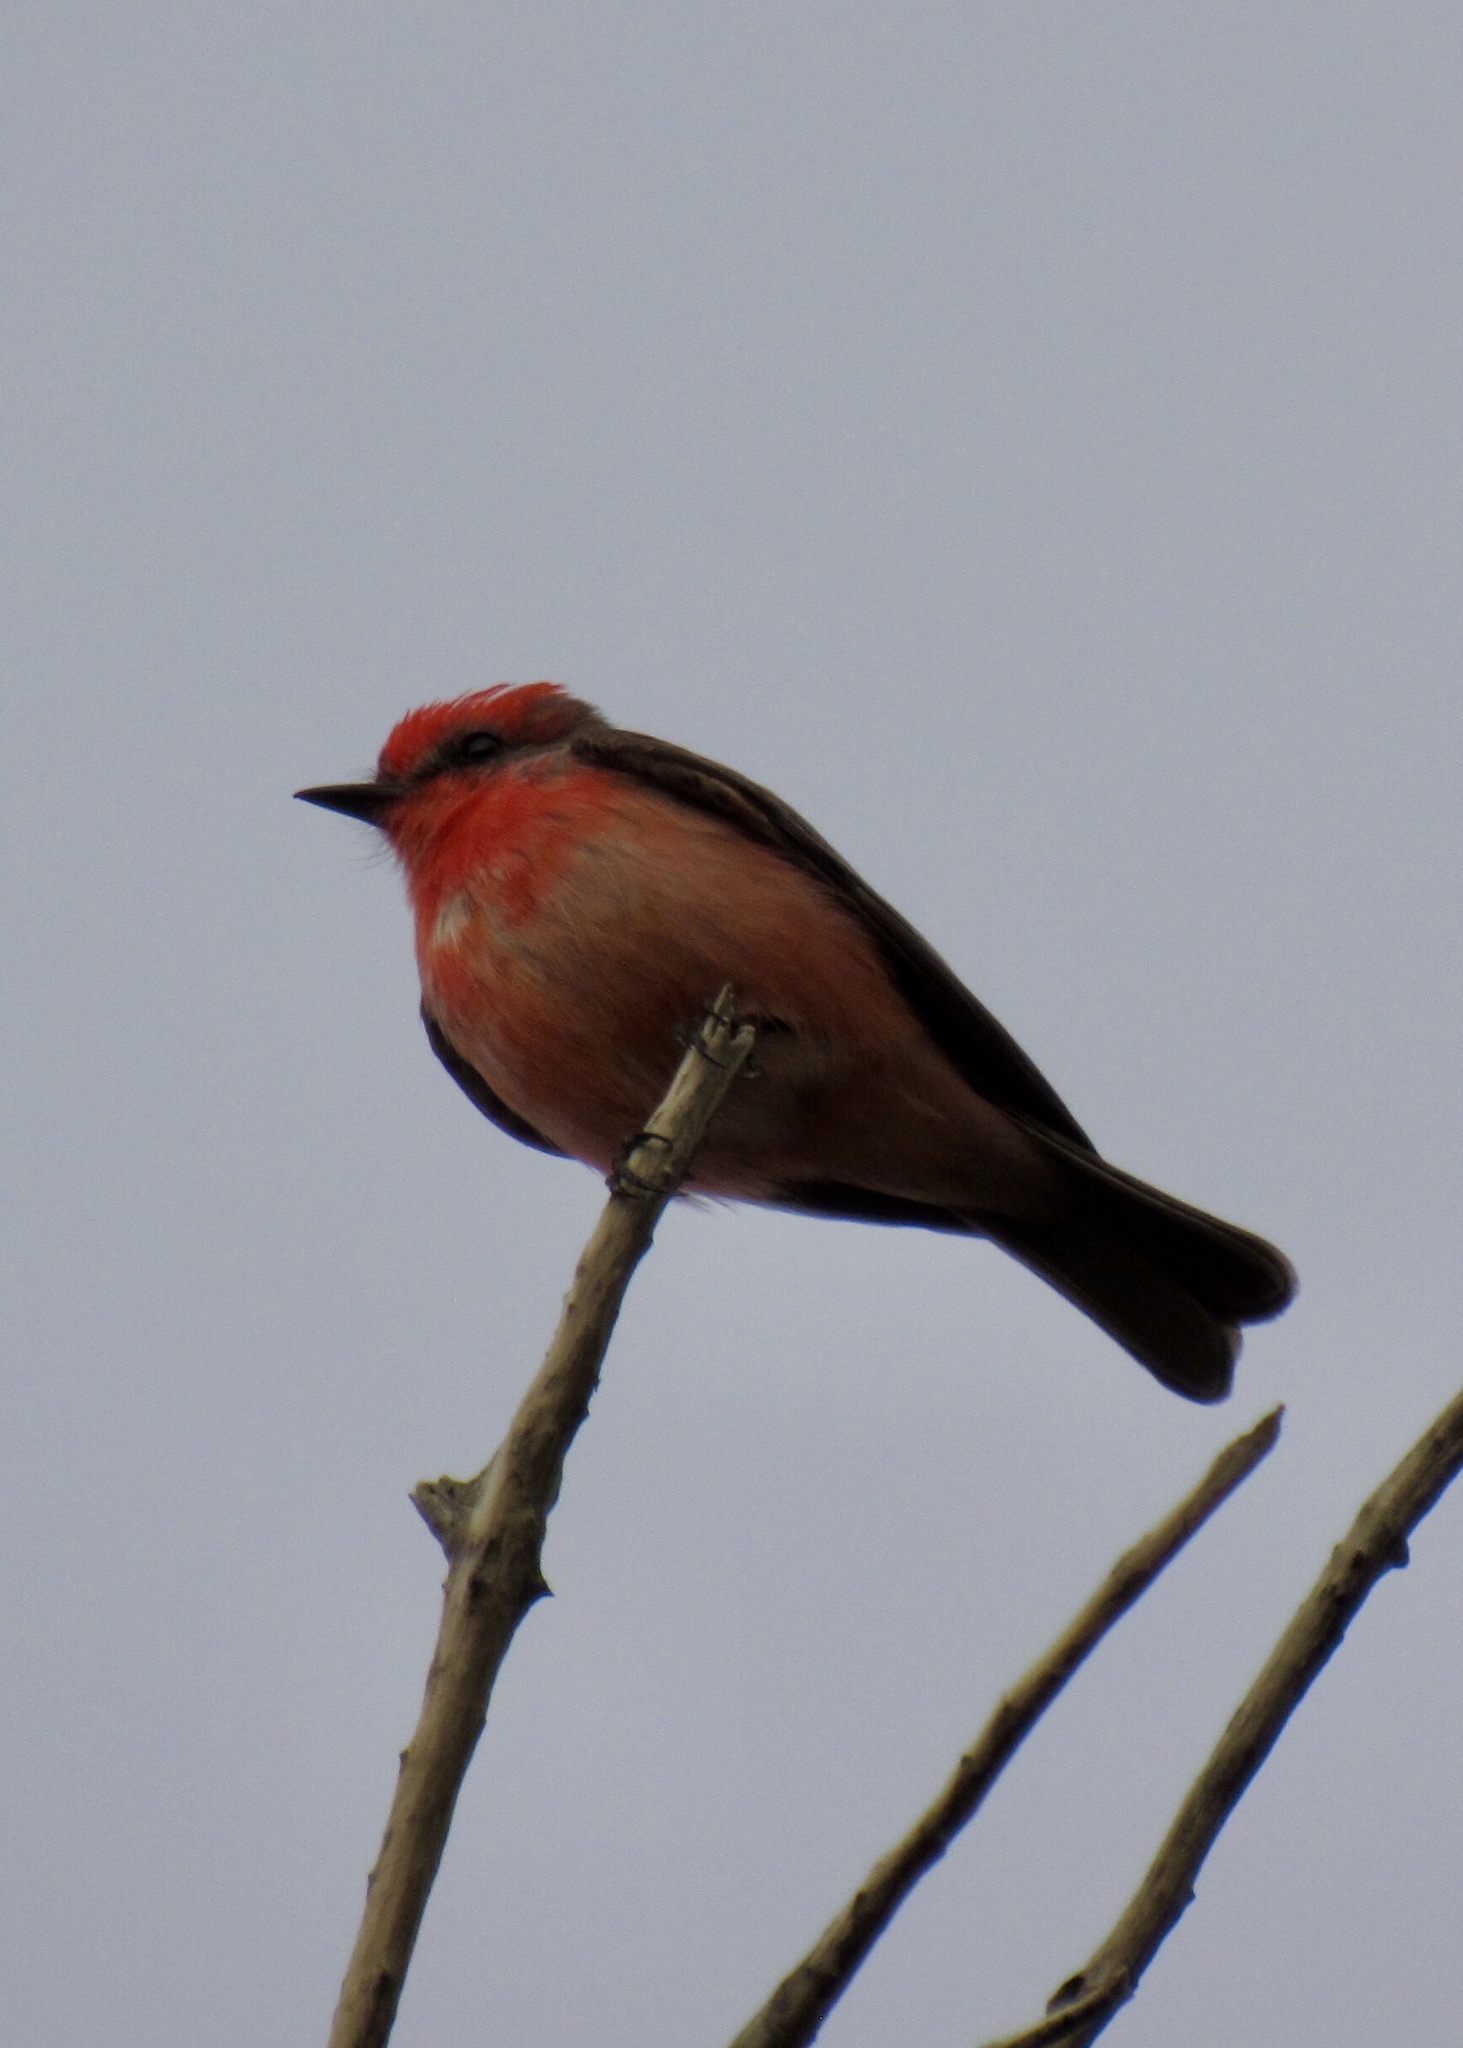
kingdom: Animalia
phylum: Chordata
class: Aves
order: Passeriformes
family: Tyrannidae
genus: Pyrocephalus
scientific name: Pyrocephalus rubinus
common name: Vermilion flycatcher
